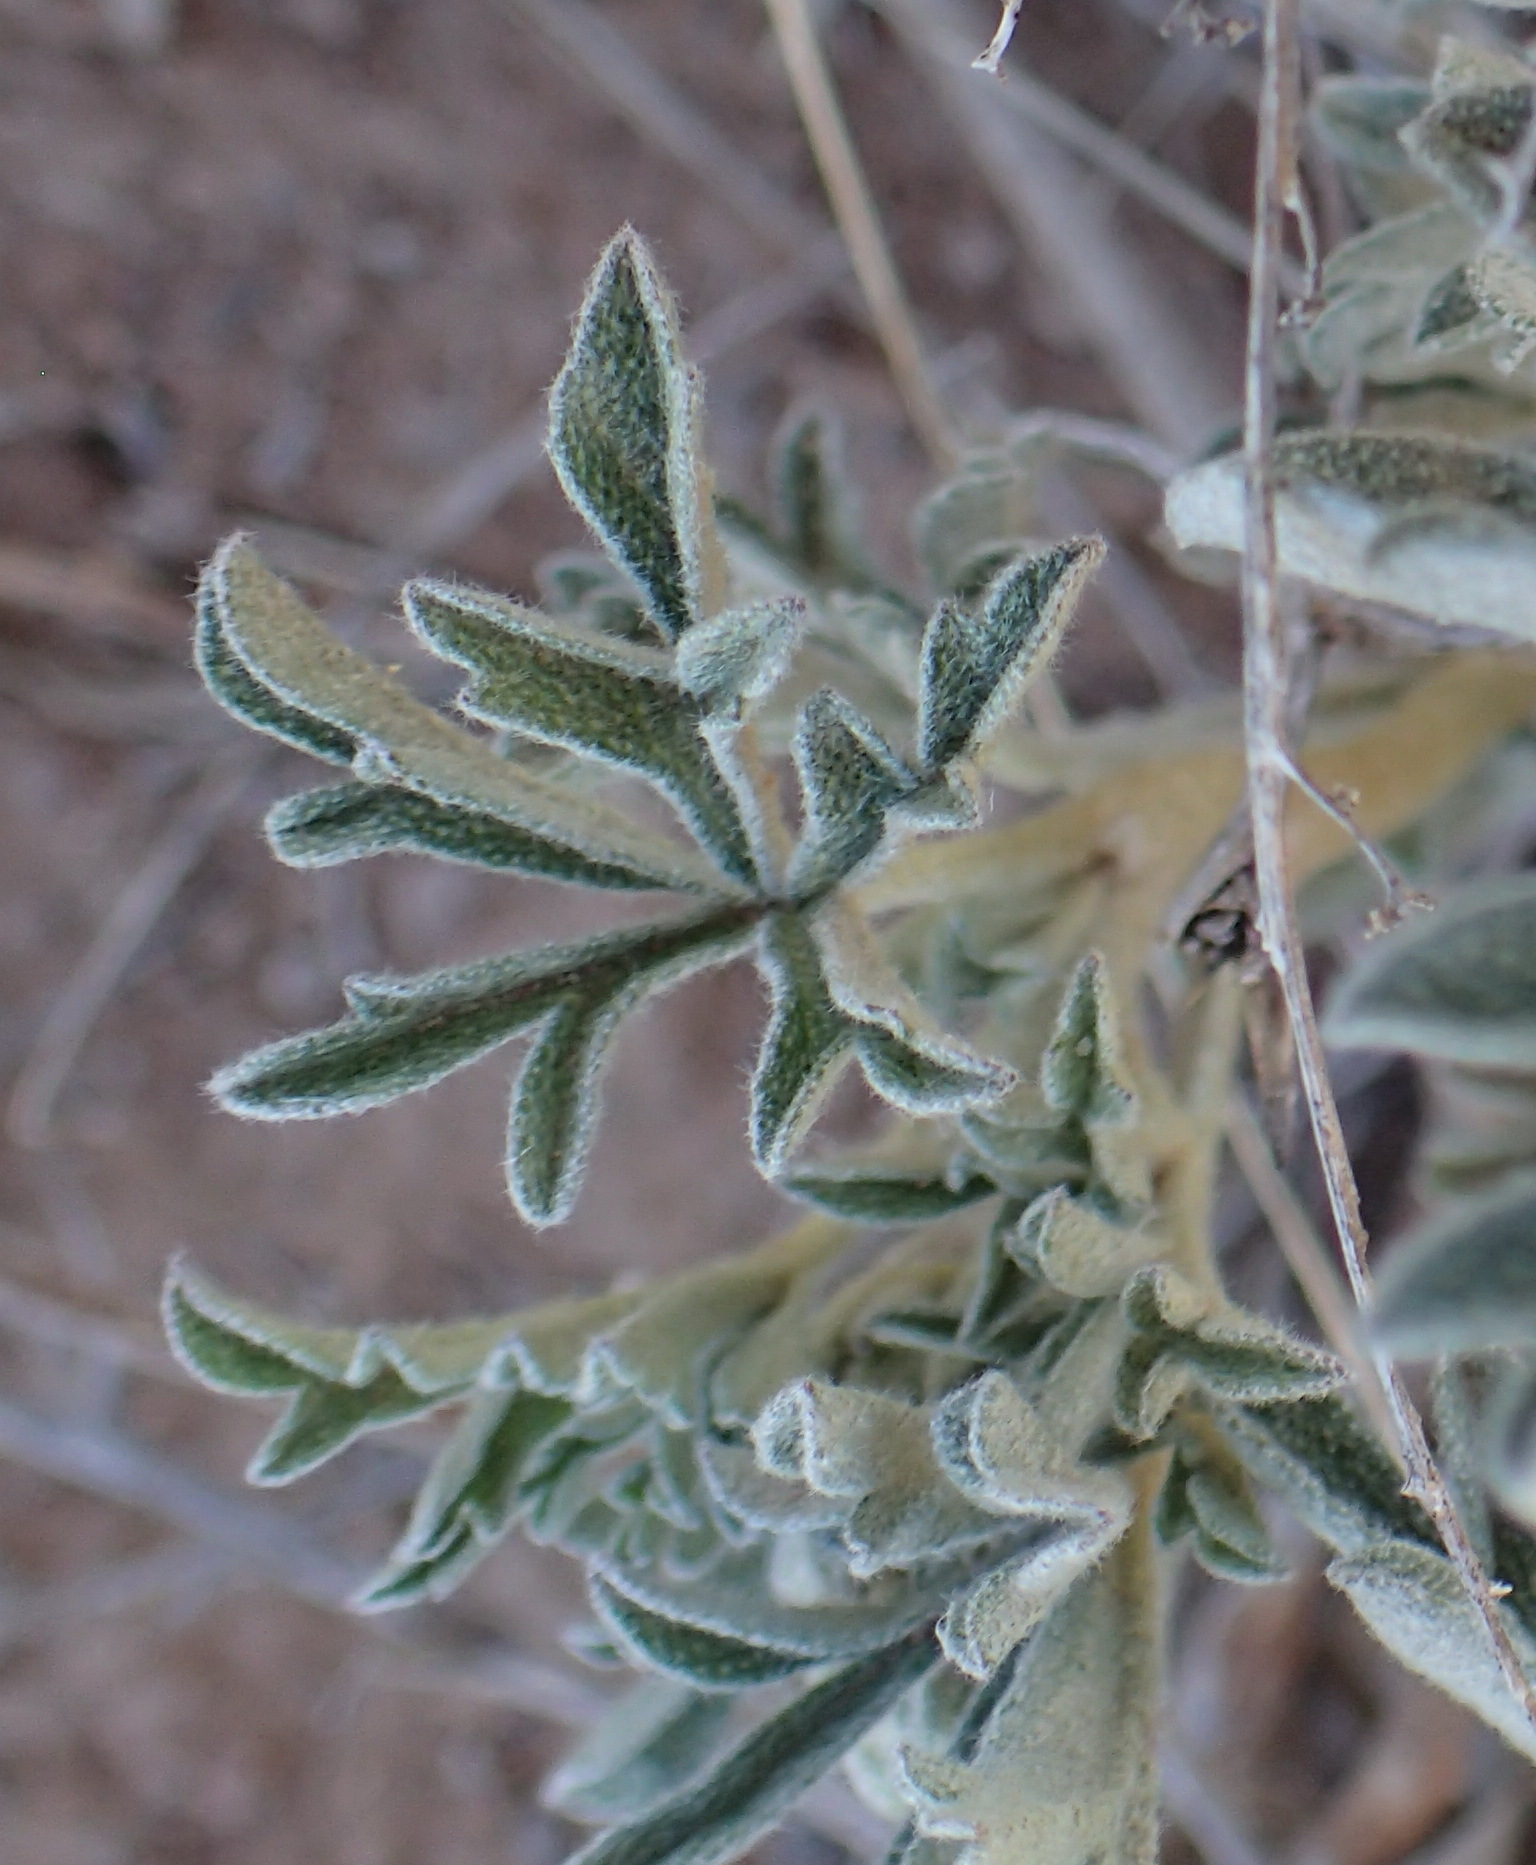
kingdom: Plantae
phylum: Tracheophyta
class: Magnoliopsida
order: Malvales
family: Malvaceae
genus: Sphaeralcea
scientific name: Sphaeralcea coccinea
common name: Moss-rose
